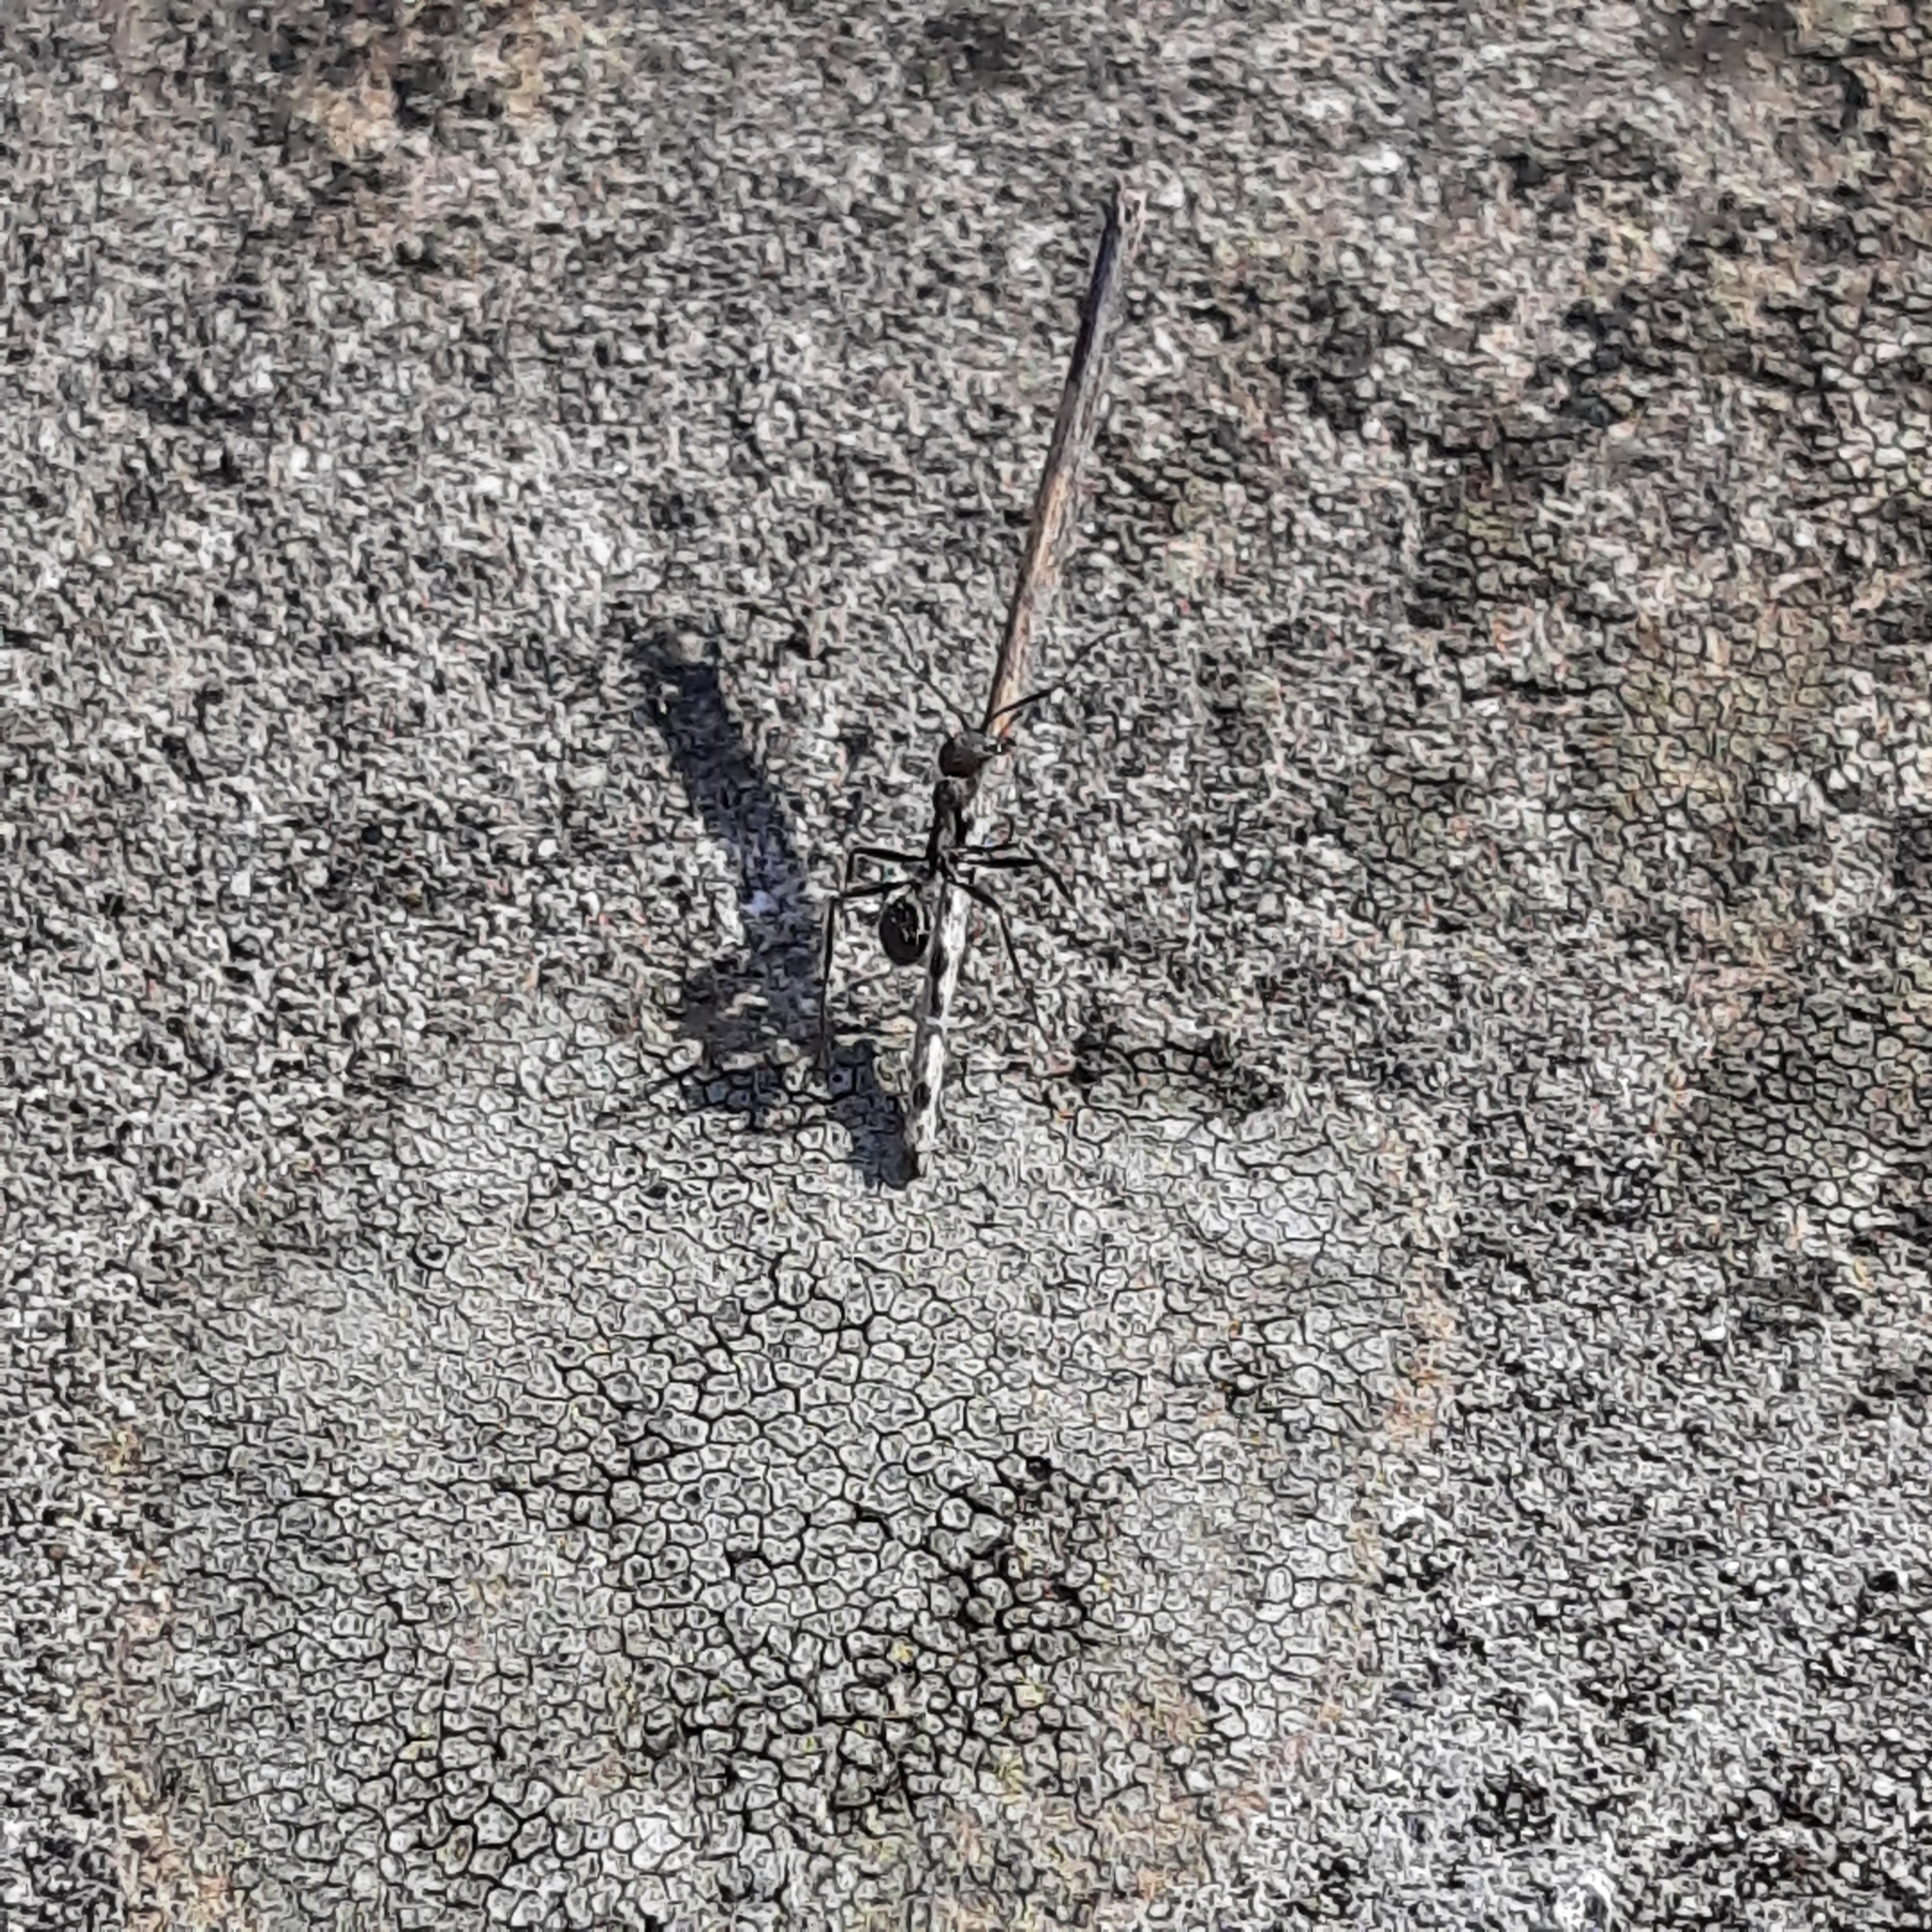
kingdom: Animalia
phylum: Arthropoda
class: Insecta
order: Hymenoptera
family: Formicidae
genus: Aphaenogaster
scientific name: Aphaenogaster
